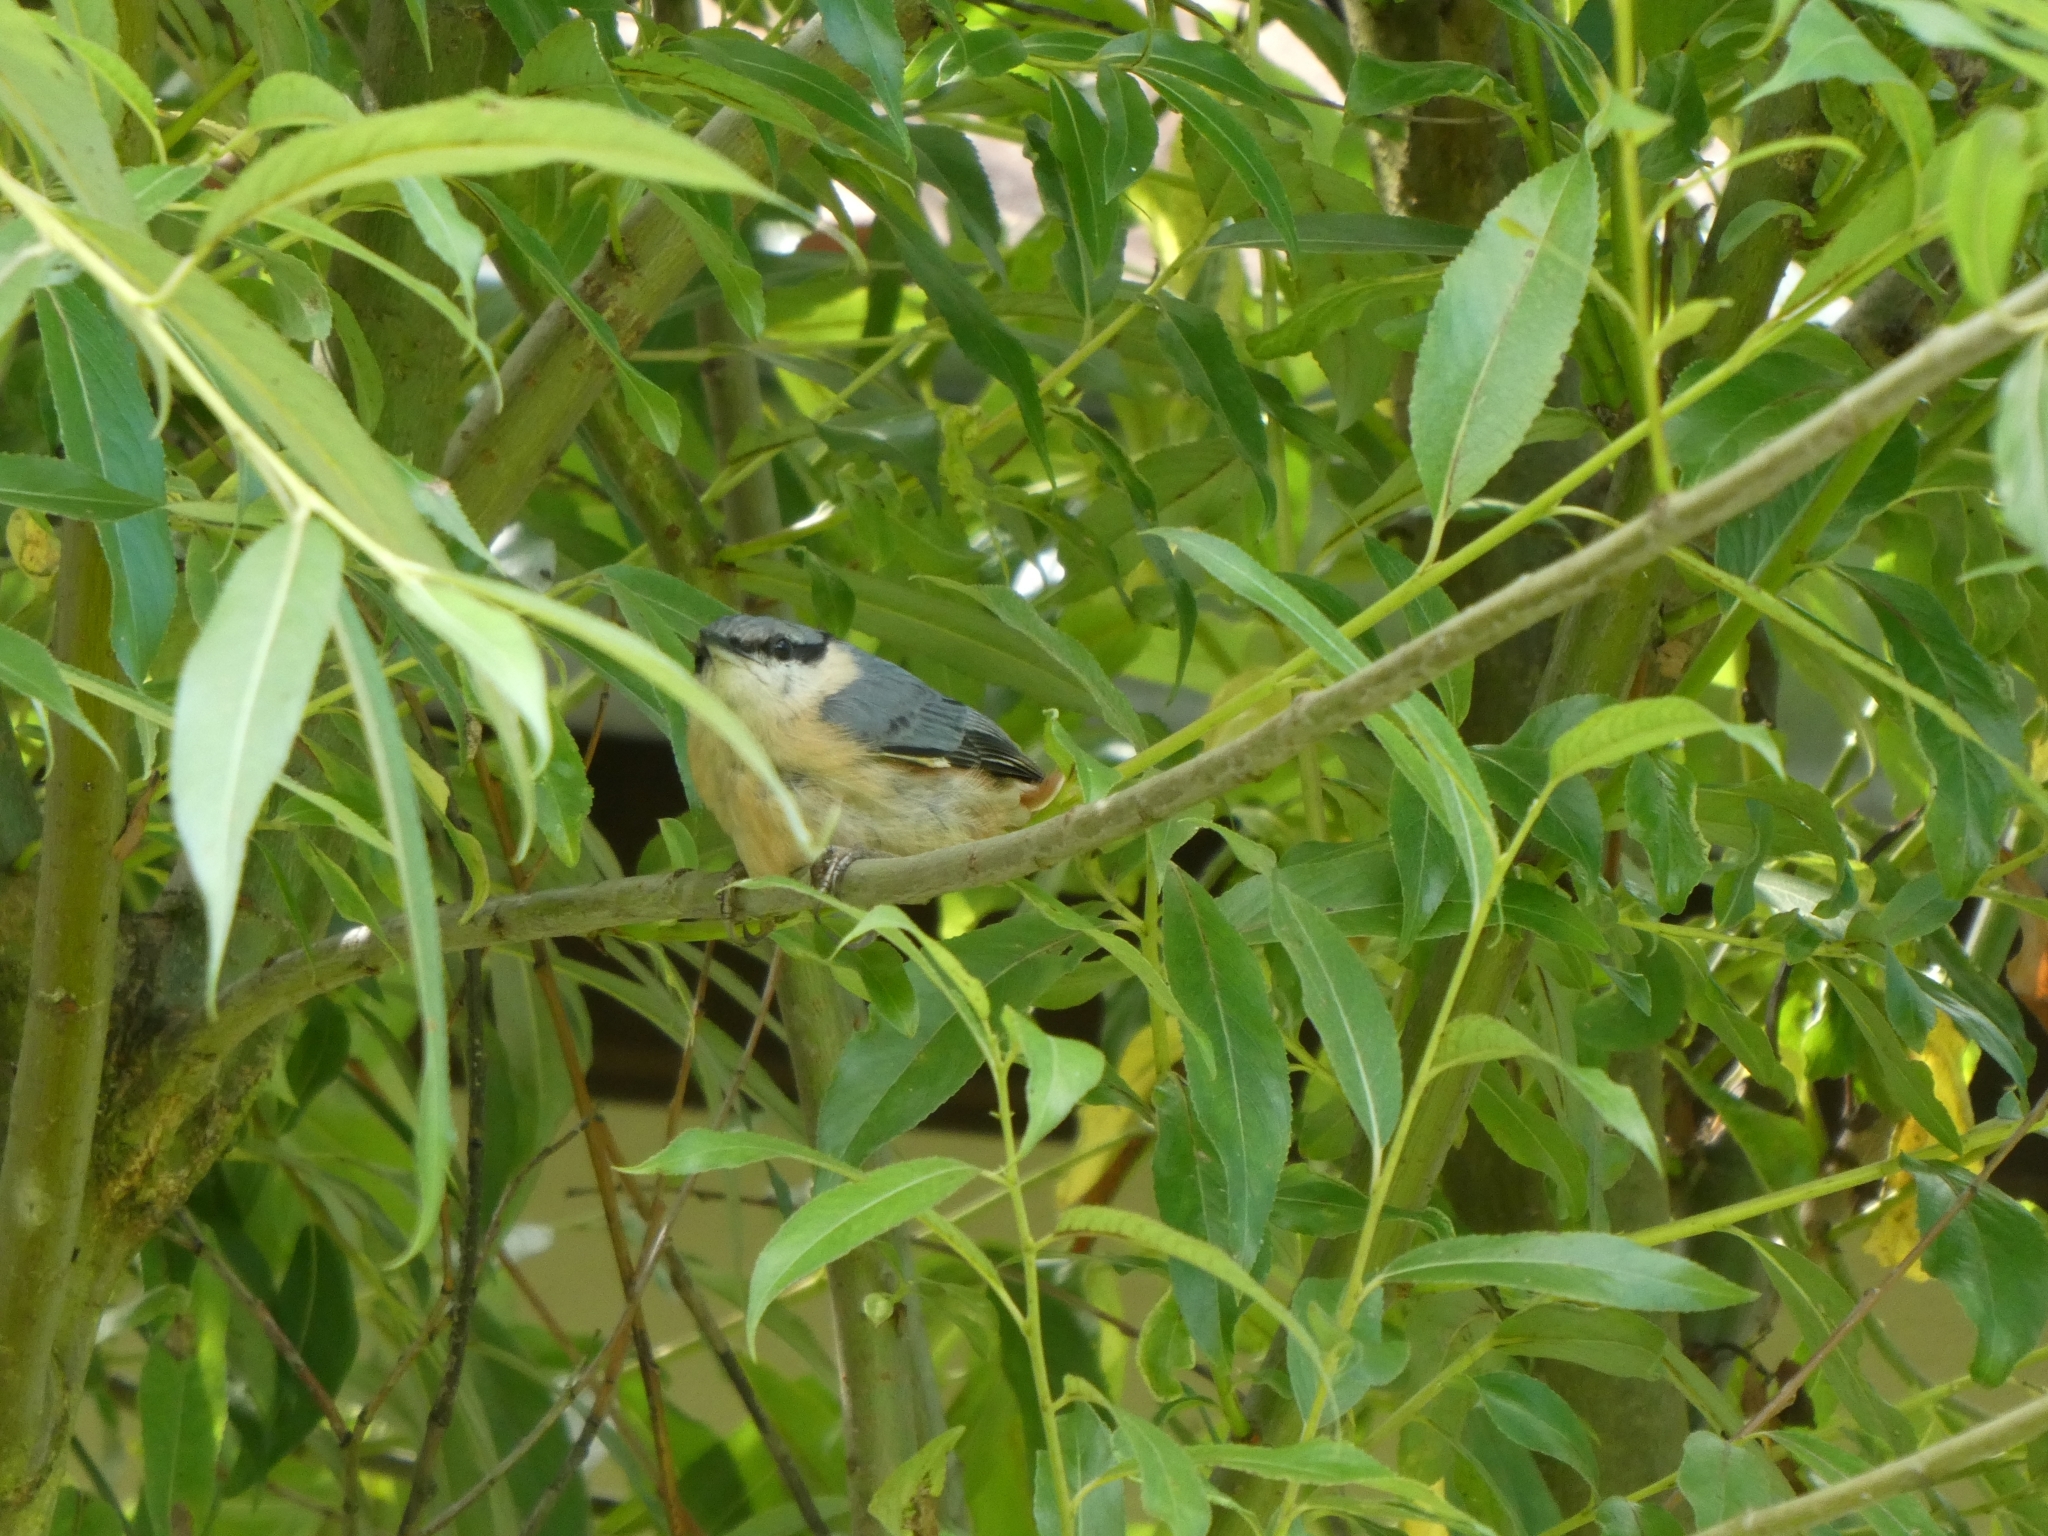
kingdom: Animalia
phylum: Chordata
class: Aves
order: Passeriformes
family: Sittidae
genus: Sitta
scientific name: Sitta europaea
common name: Eurasian nuthatch
